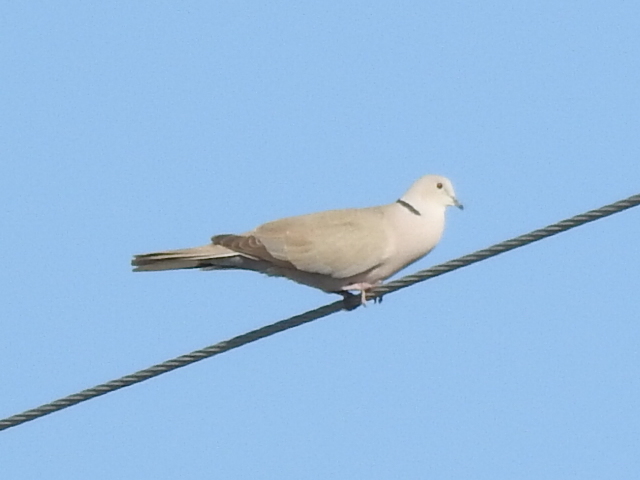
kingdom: Animalia
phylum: Chordata
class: Aves
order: Columbiformes
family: Columbidae
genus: Streptopelia
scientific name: Streptopelia decaocto
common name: Eurasian collared dove
